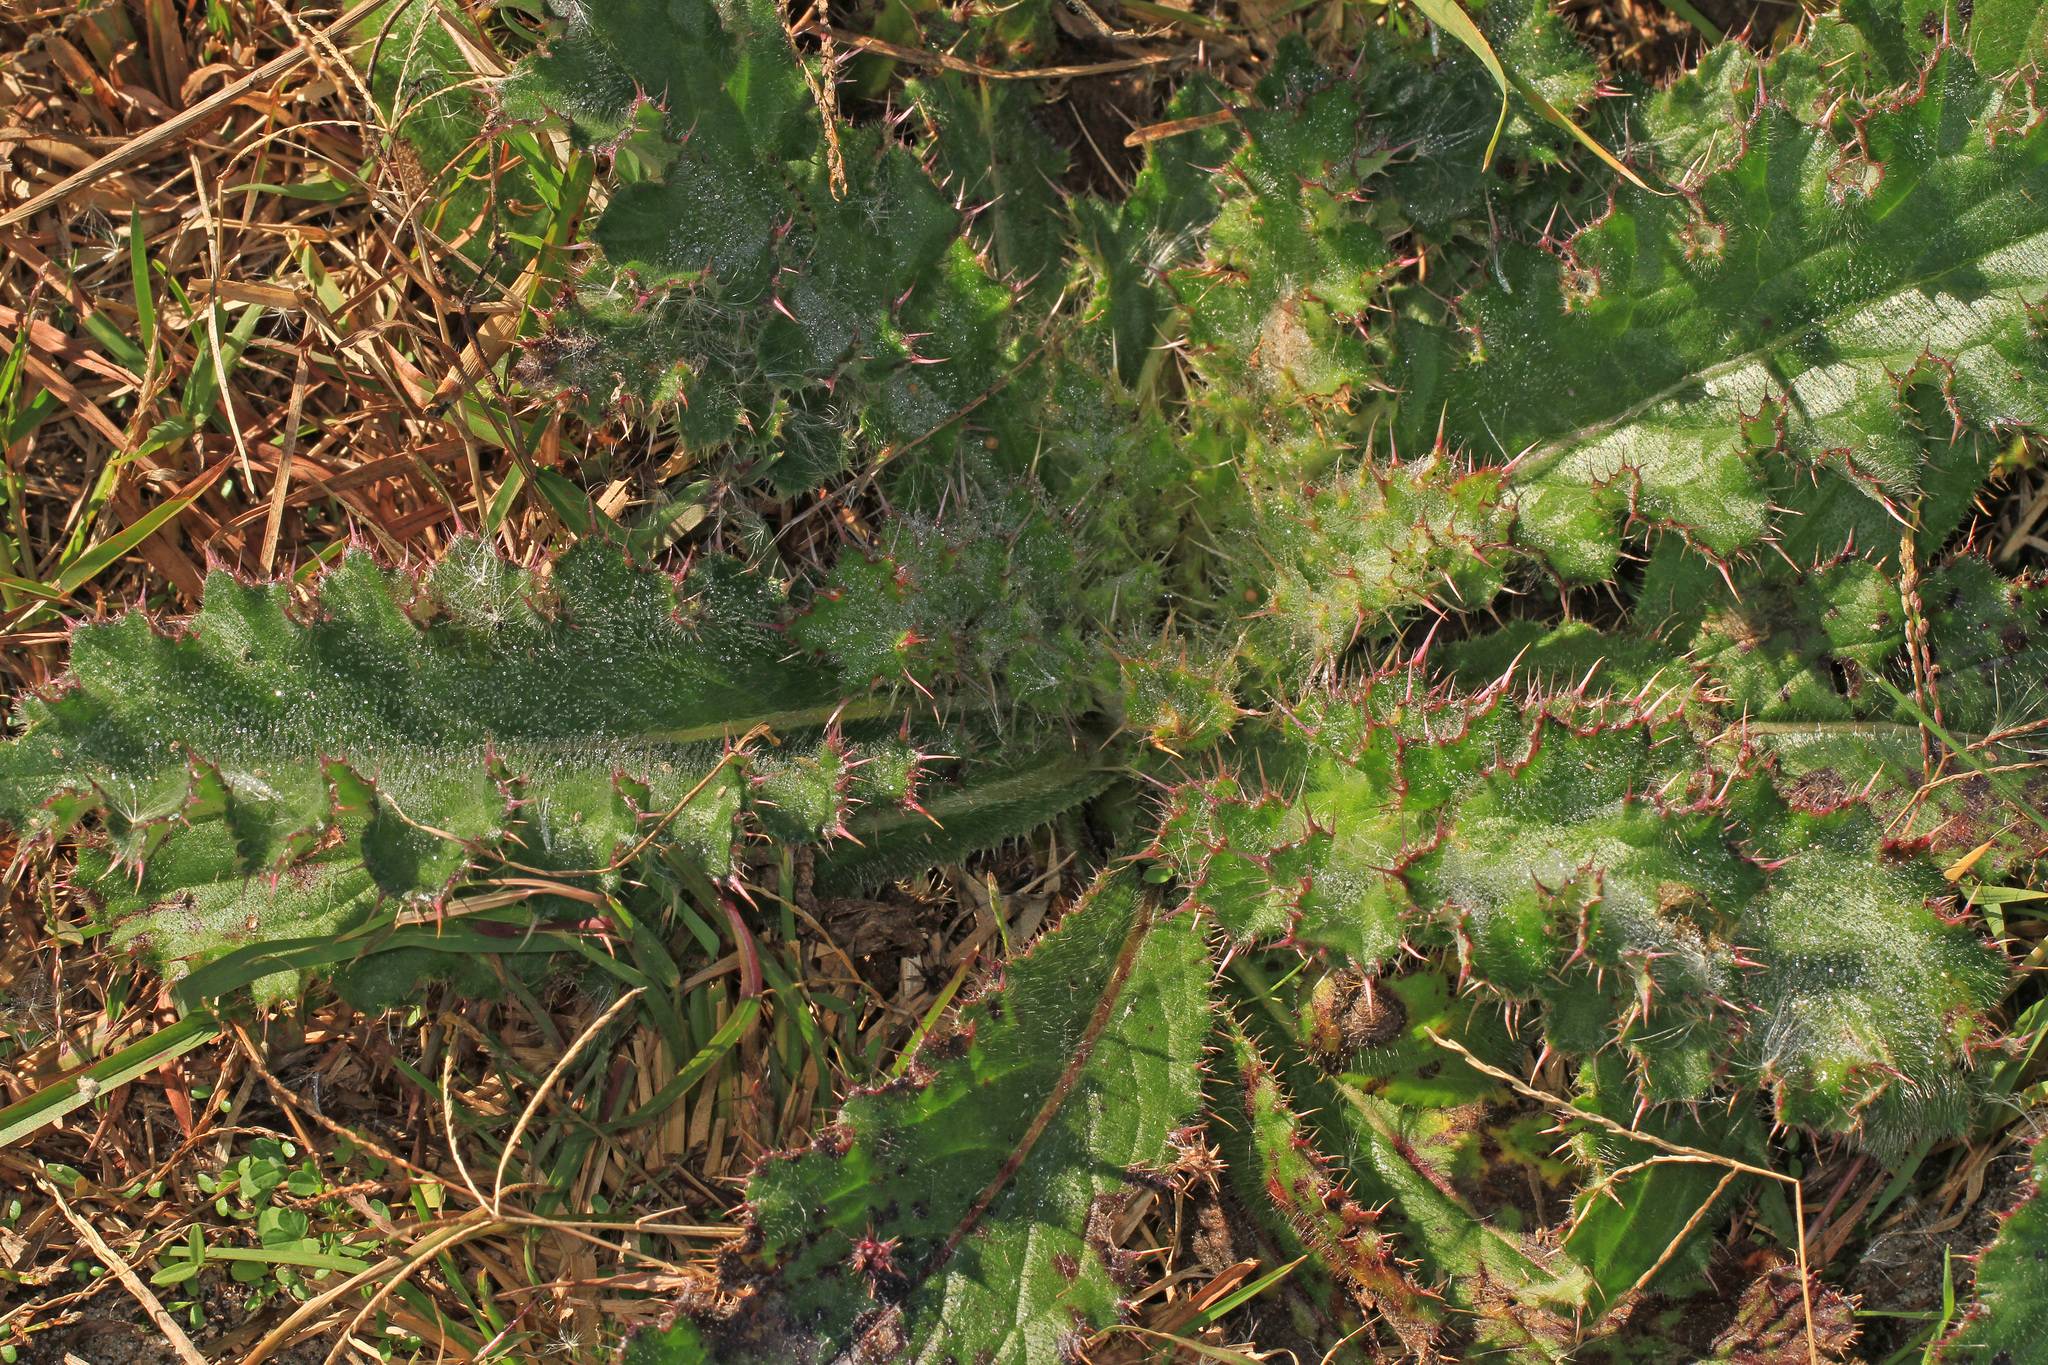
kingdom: Plantae
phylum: Tracheophyta
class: Magnoliopsida
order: Asterales
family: Asteraceae
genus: Cirsium
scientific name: Cirsium horridulum
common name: Bristly thistle
